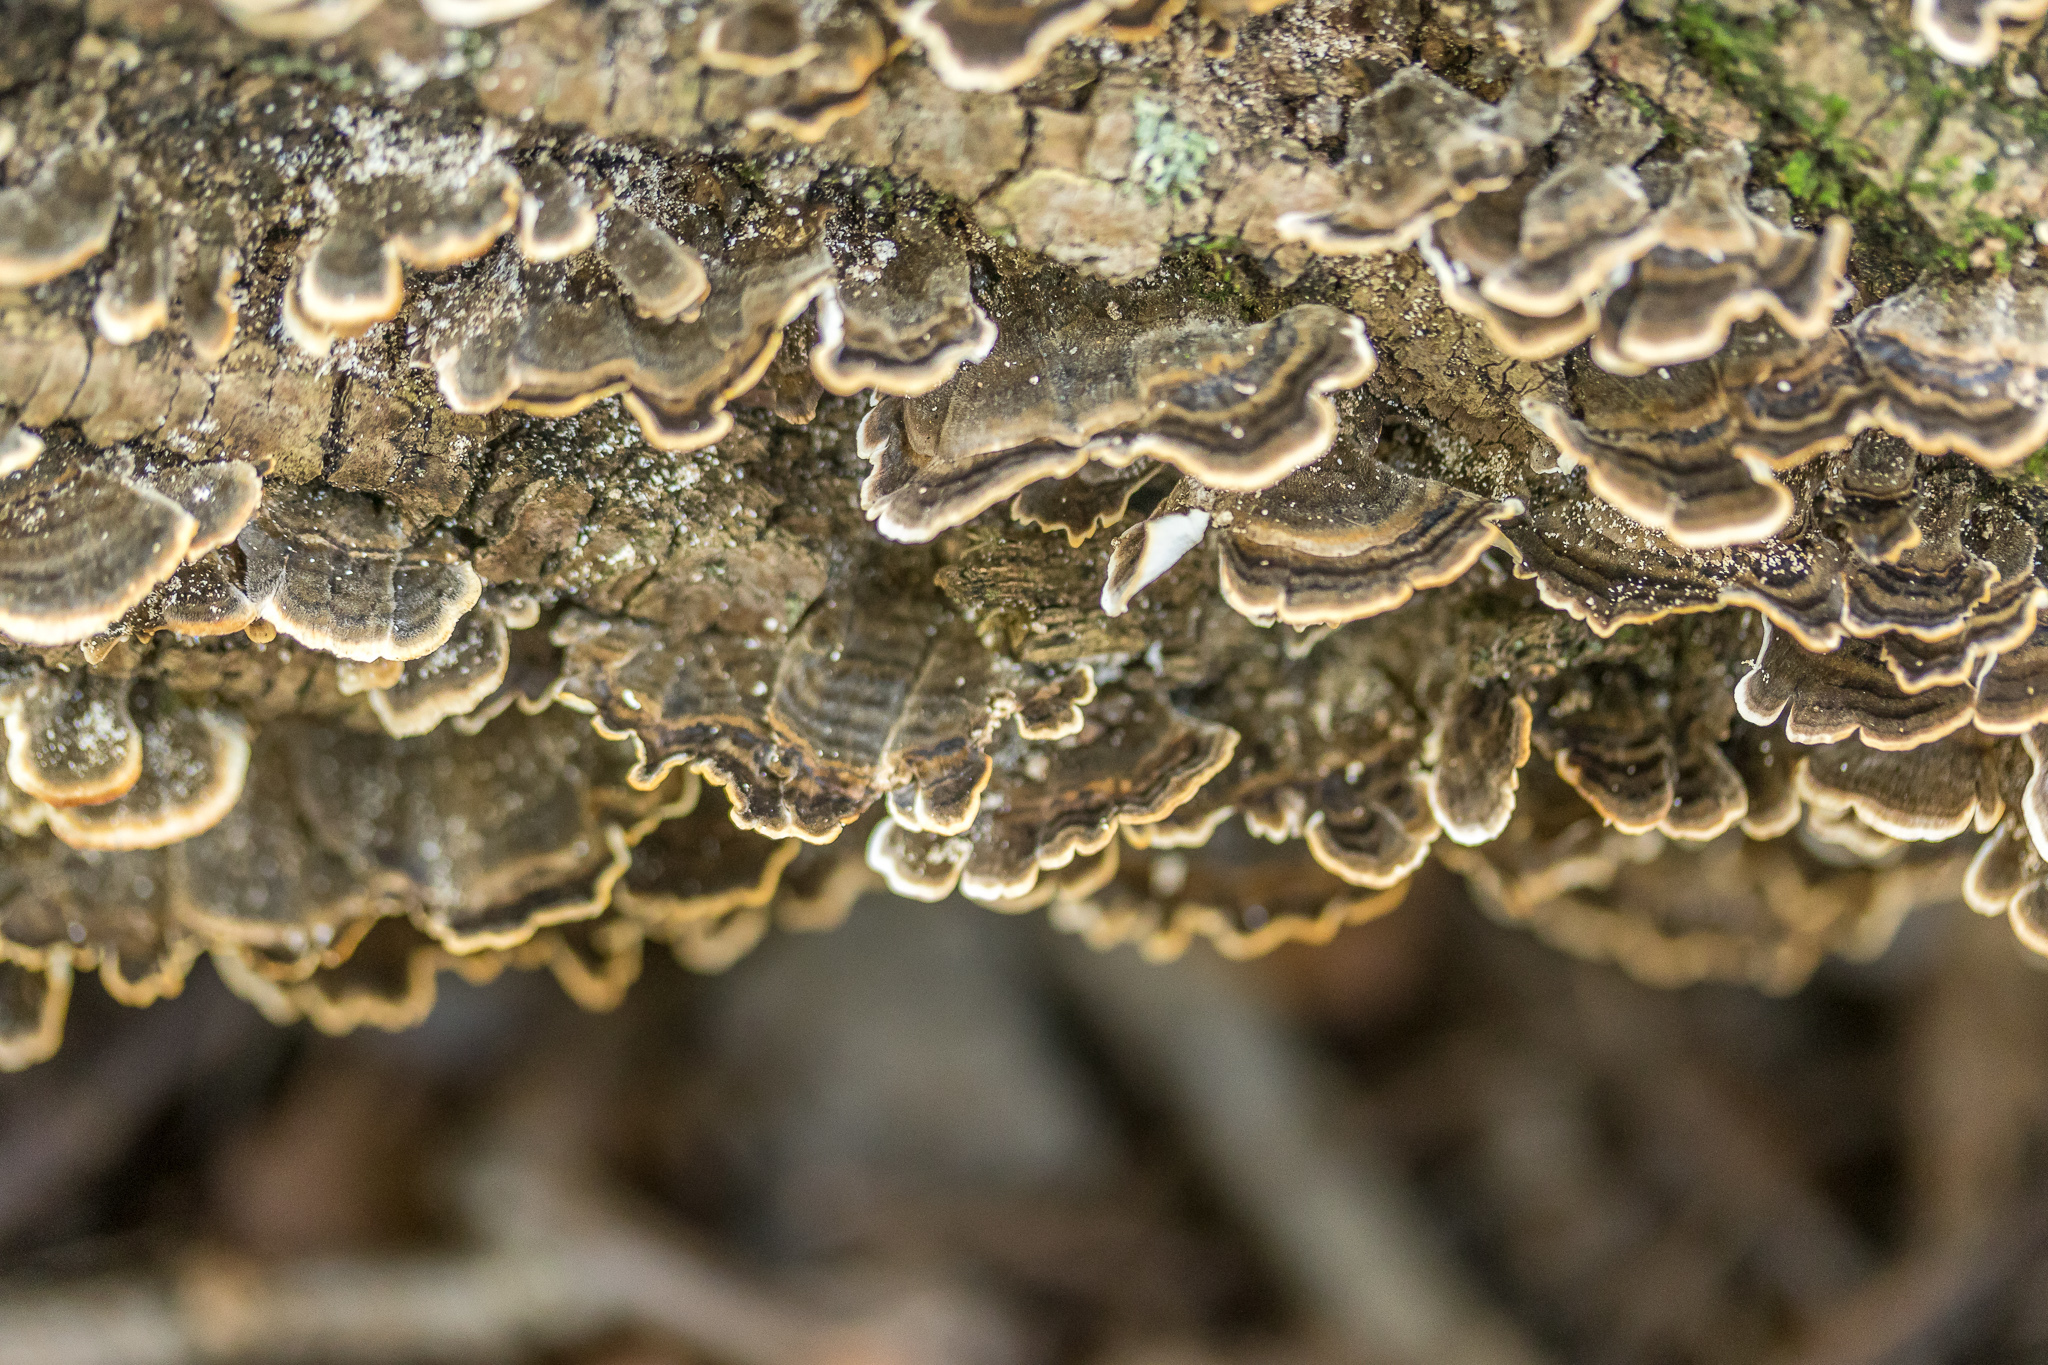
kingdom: Fungi
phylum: Basidiomycota
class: Agaricomycetes
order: Polyporales
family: Polyporaceae
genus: Trametes
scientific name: Trametes versicolor
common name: Turkeytail
